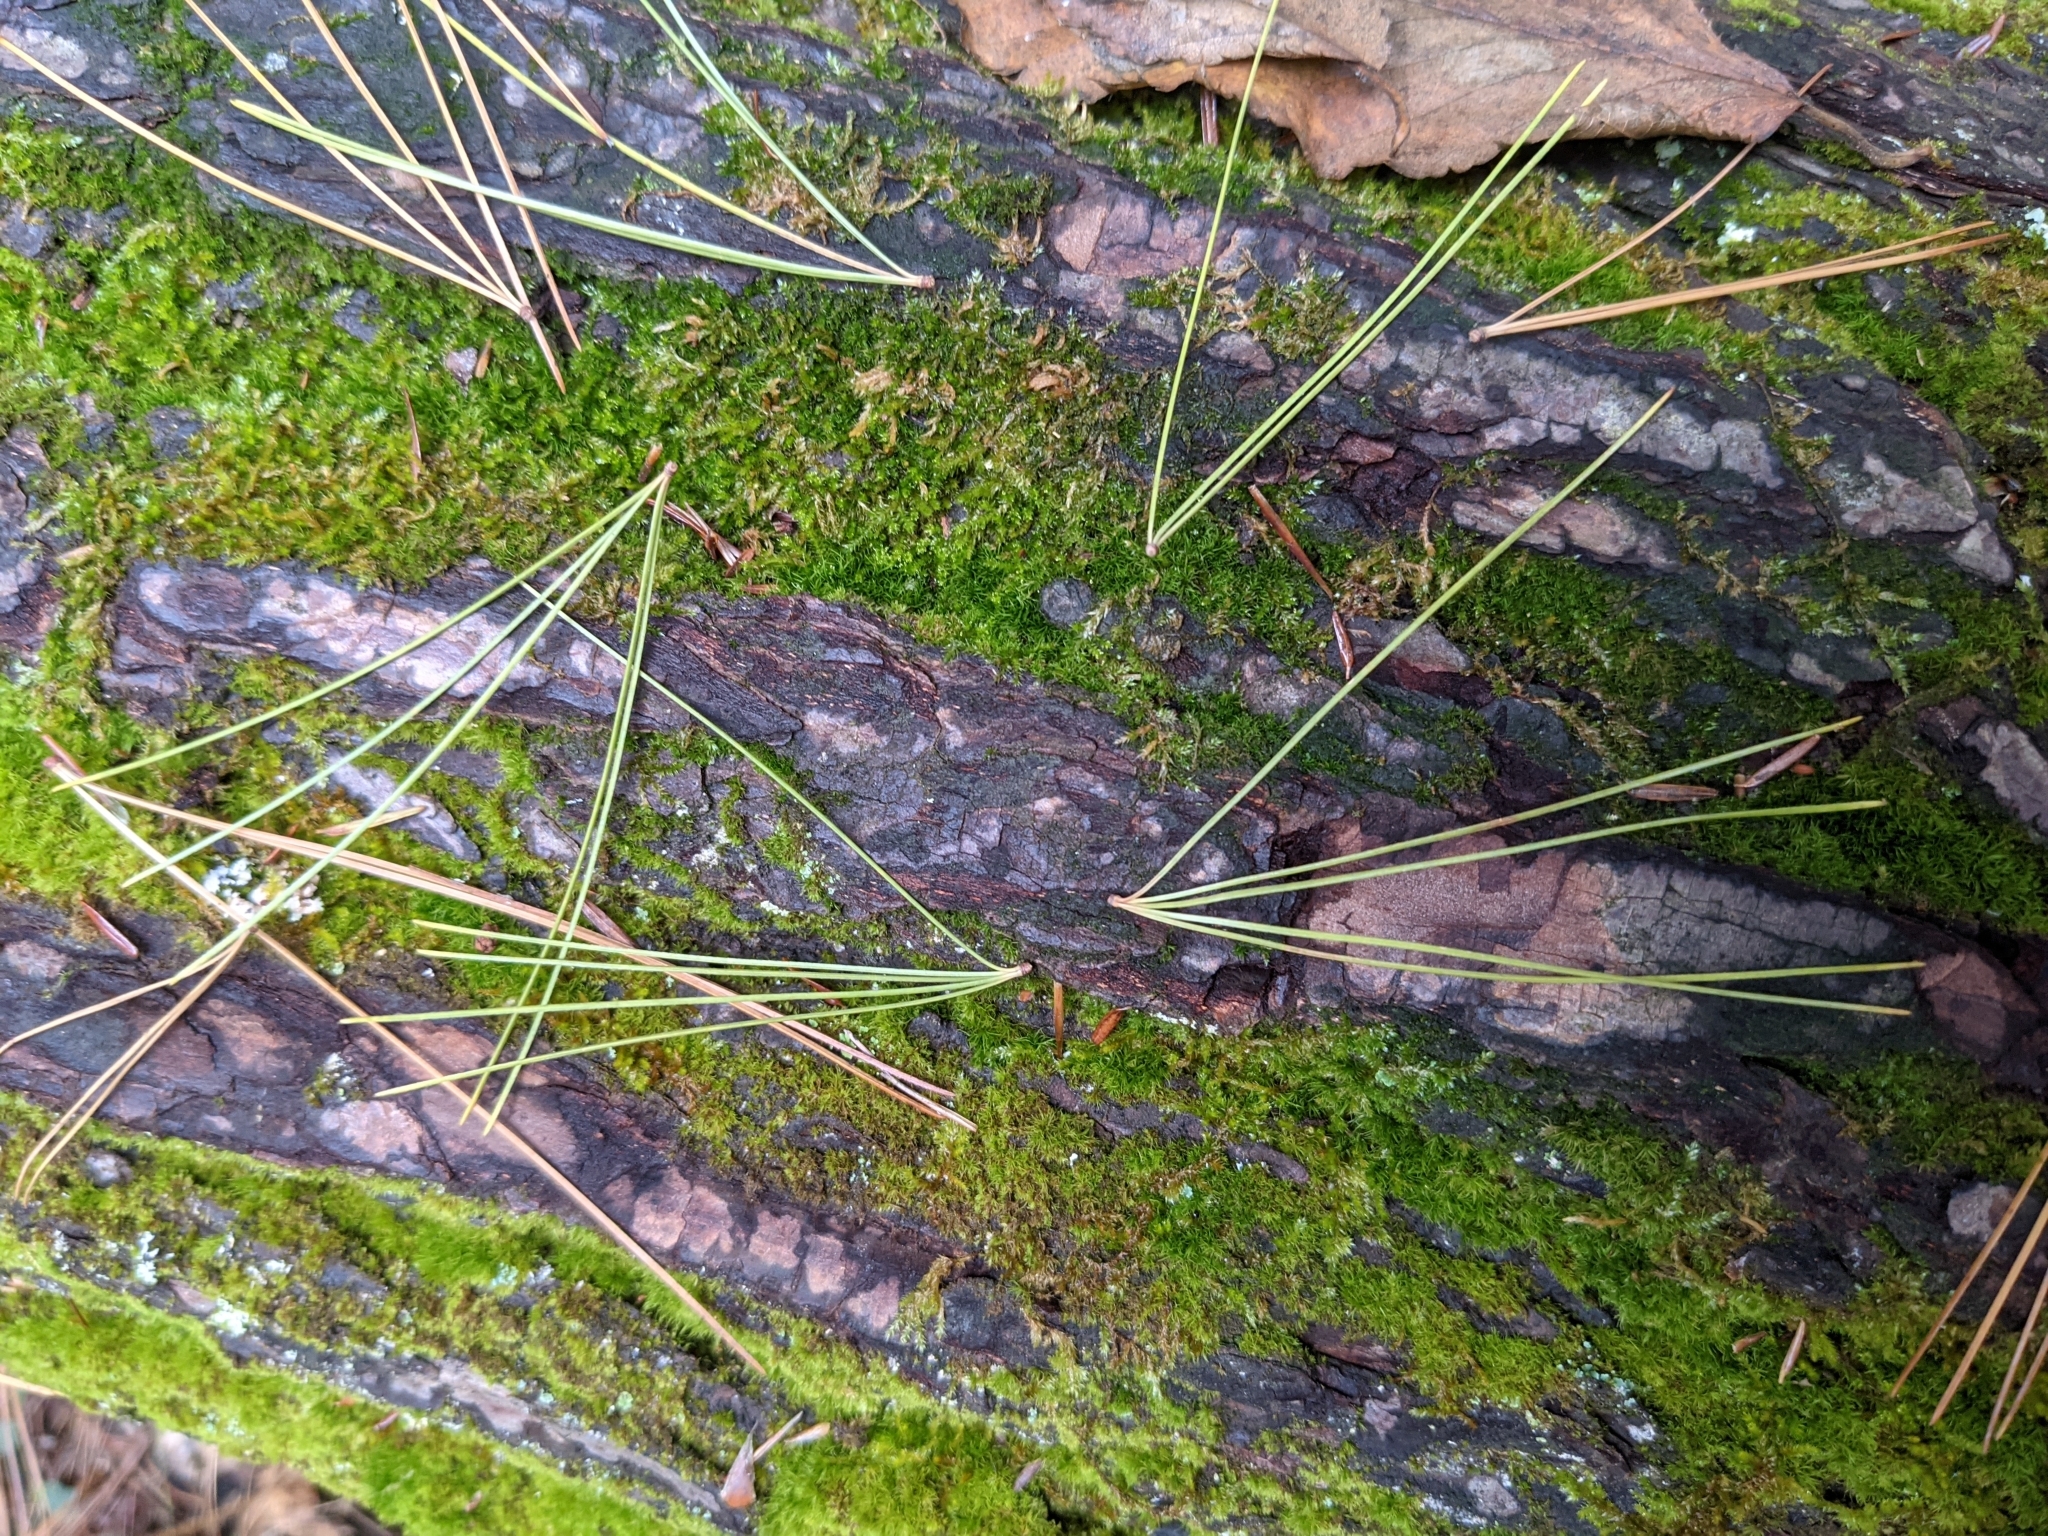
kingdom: Plantae
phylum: Tracheophyta
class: Pinopsida
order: Pinales
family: Pinaceae
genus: Pinus
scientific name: Pinus strobus
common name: Weymouth pine
